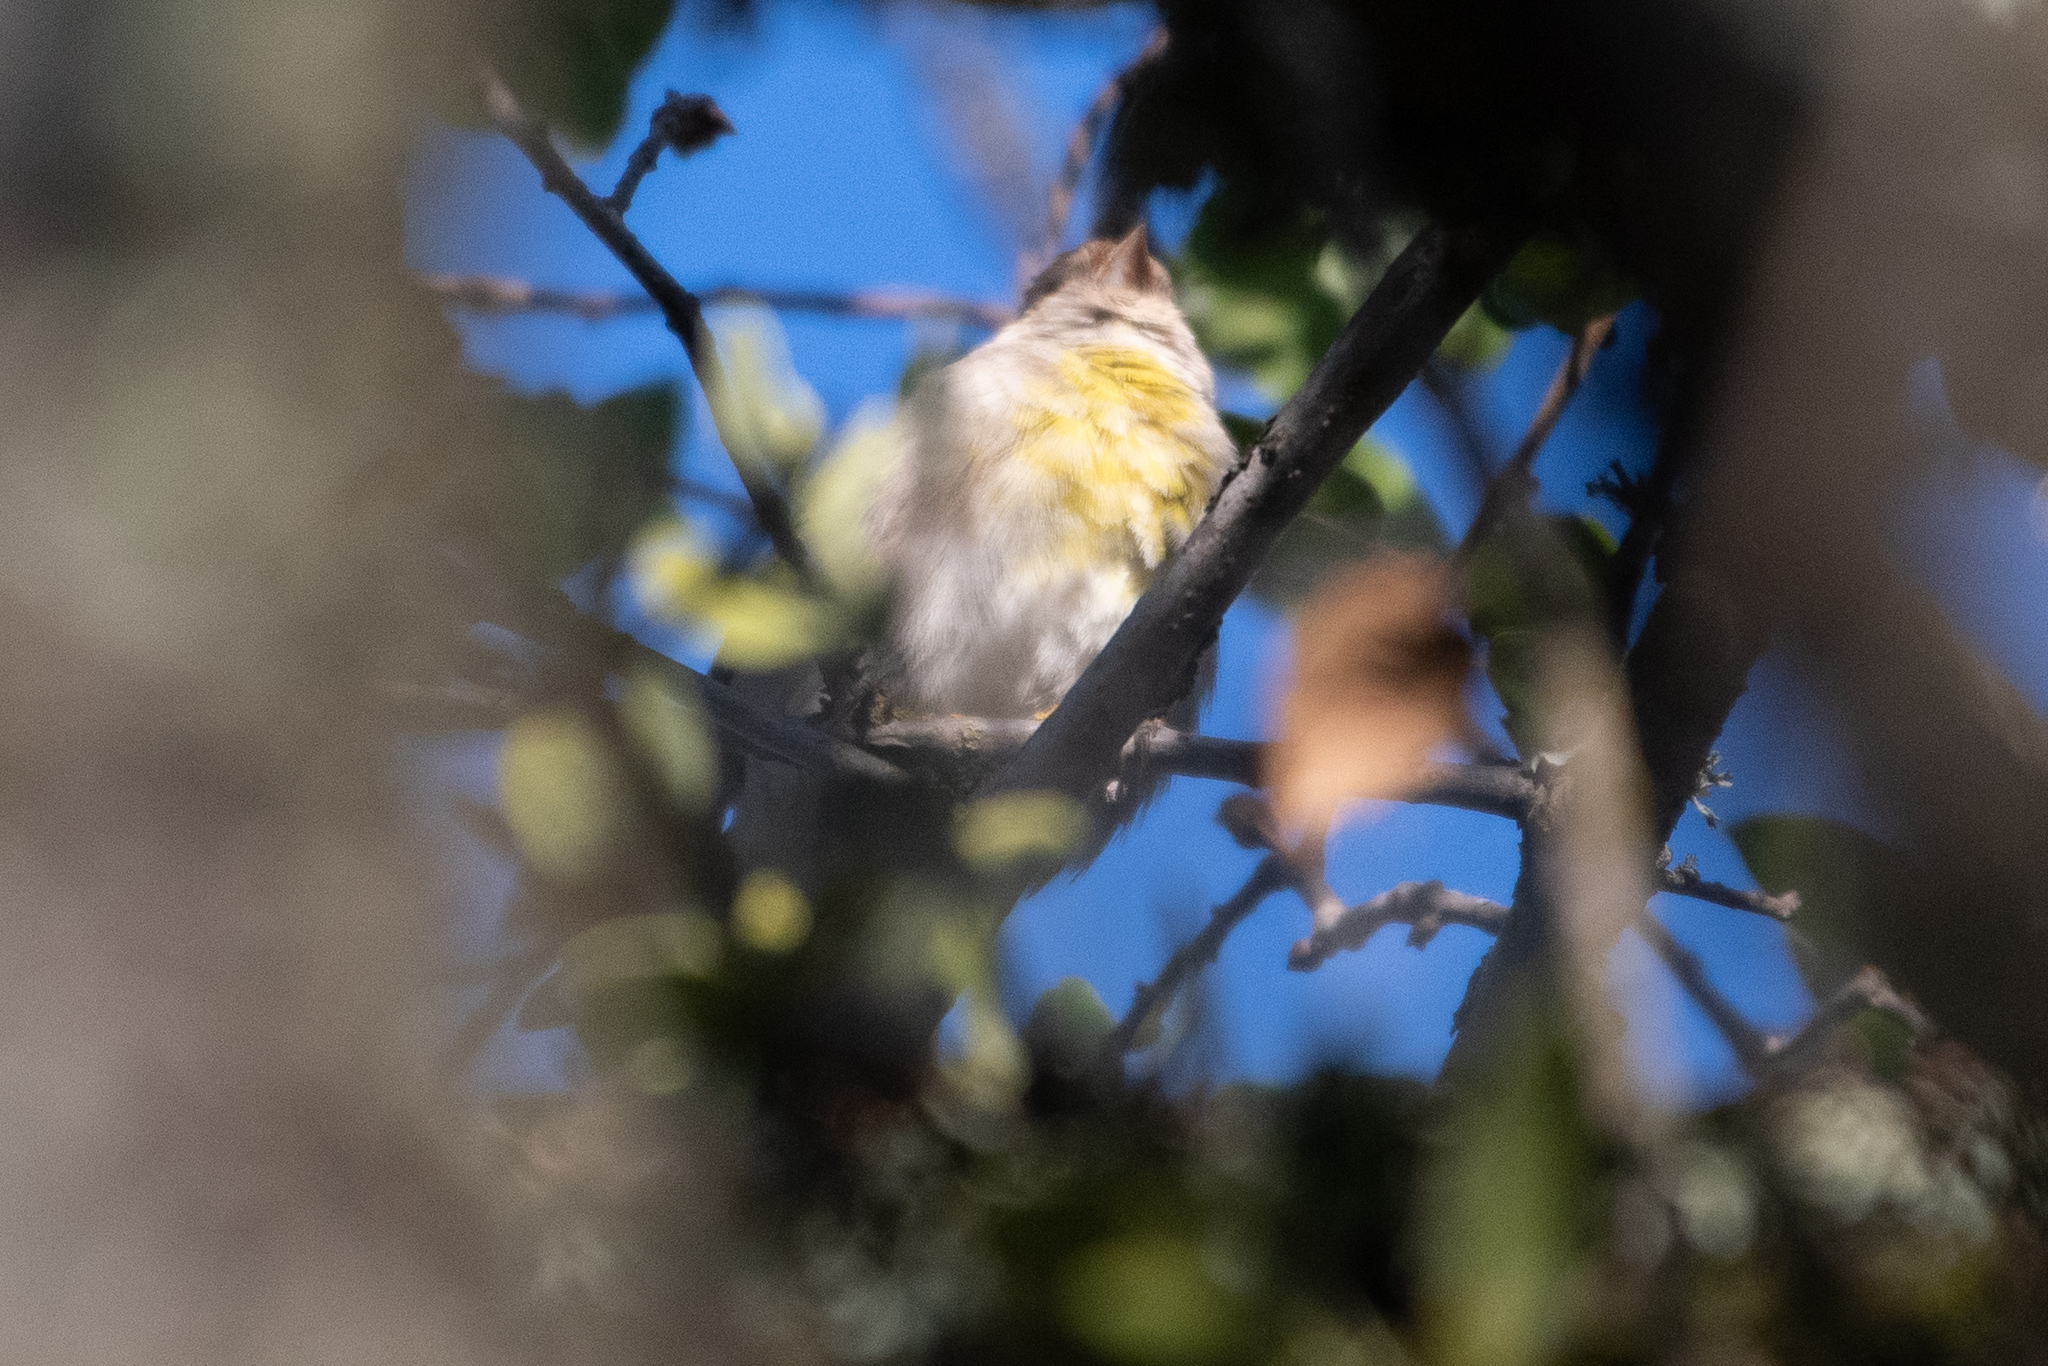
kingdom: Animalia
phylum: Chordata
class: Aves
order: Passeriformes
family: Fringillidae
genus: Spinus
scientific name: Spinus lawrencei
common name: Lawrence's goldfinch
